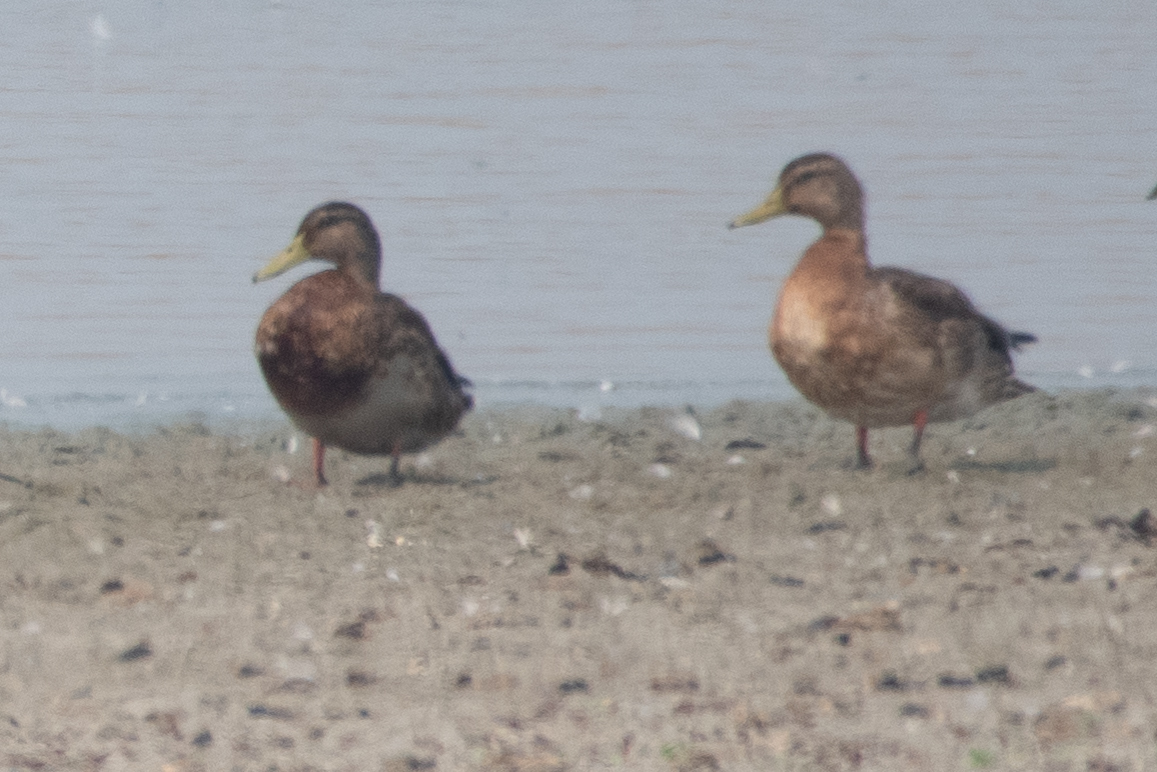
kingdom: Animalia
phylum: Chordata
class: Aves
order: Anseriformes
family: Anatidae
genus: Anas
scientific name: Anas platyrhynchos
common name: Mallard
